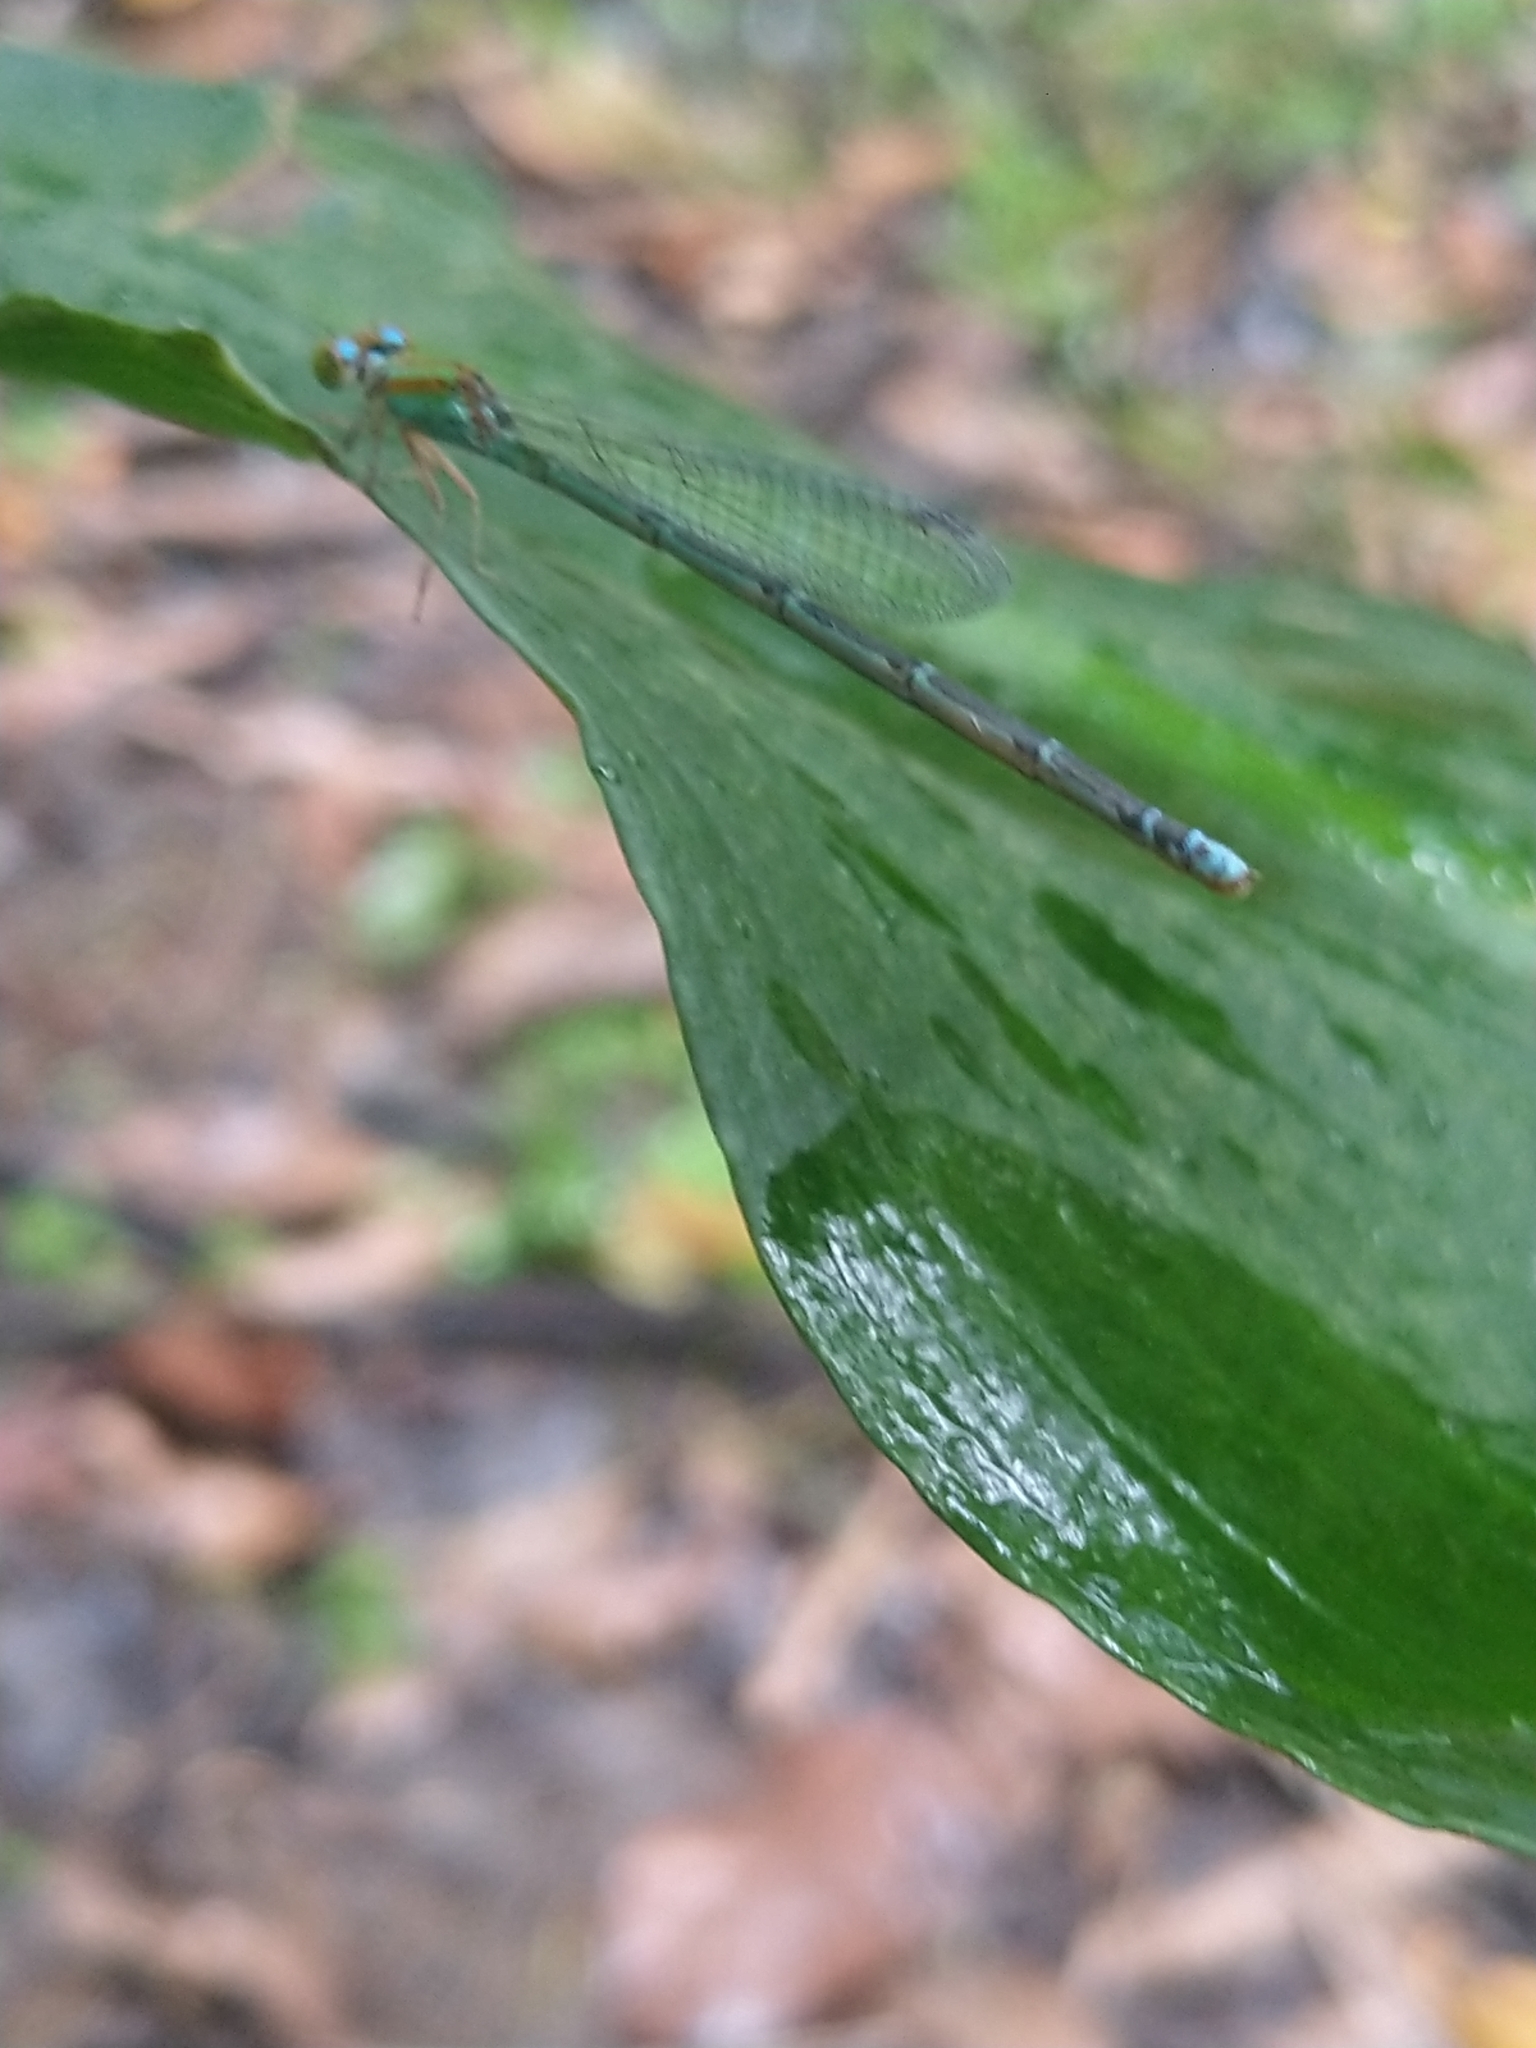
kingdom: Animalia
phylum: Arthropoda
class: Insecta
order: Odonata
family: Coenagrionidae
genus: Pseudagrion
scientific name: Pseudagrion microcephalum
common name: Blue riverdamsel
